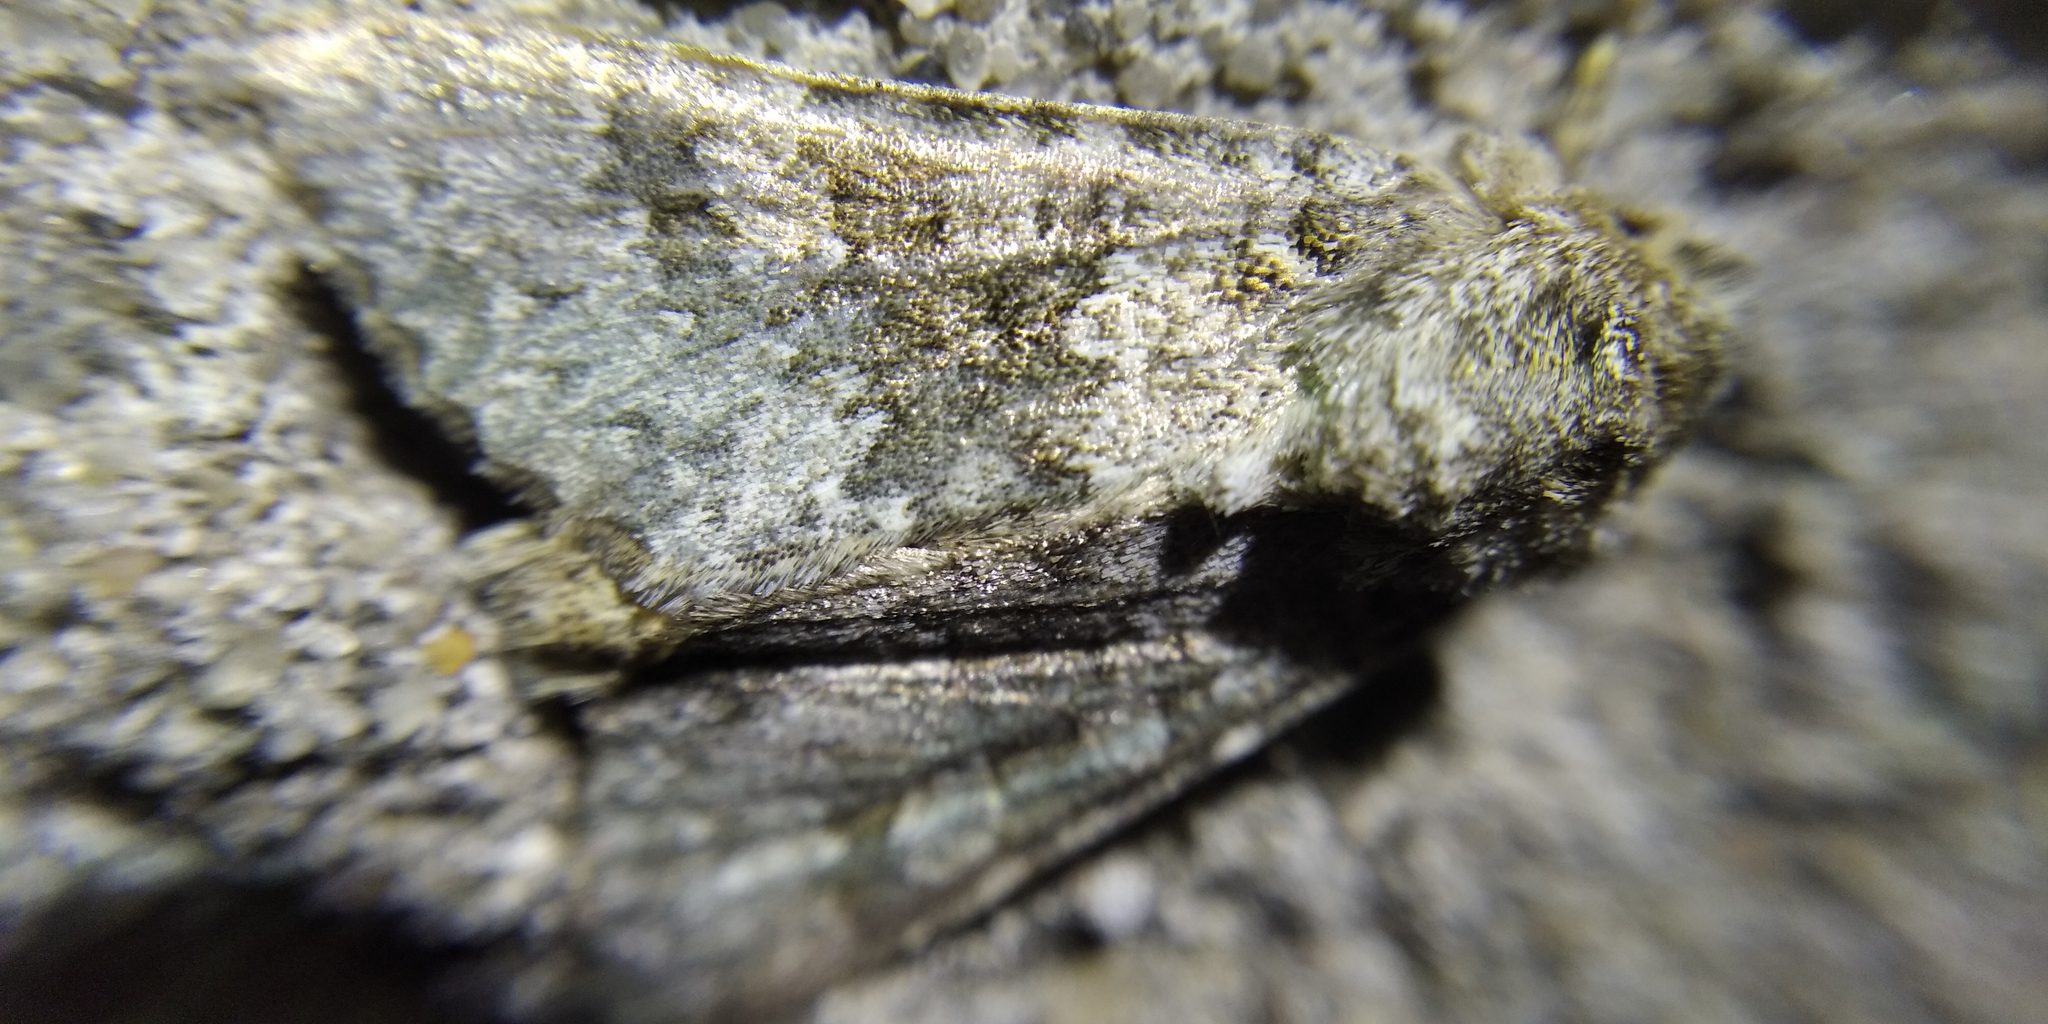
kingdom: Animalia
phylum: Arthropoda
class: Insecta
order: Lepidoptera
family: Noctuidae
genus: Hecatera
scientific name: Hecatera dysodea
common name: Small ranunculus
